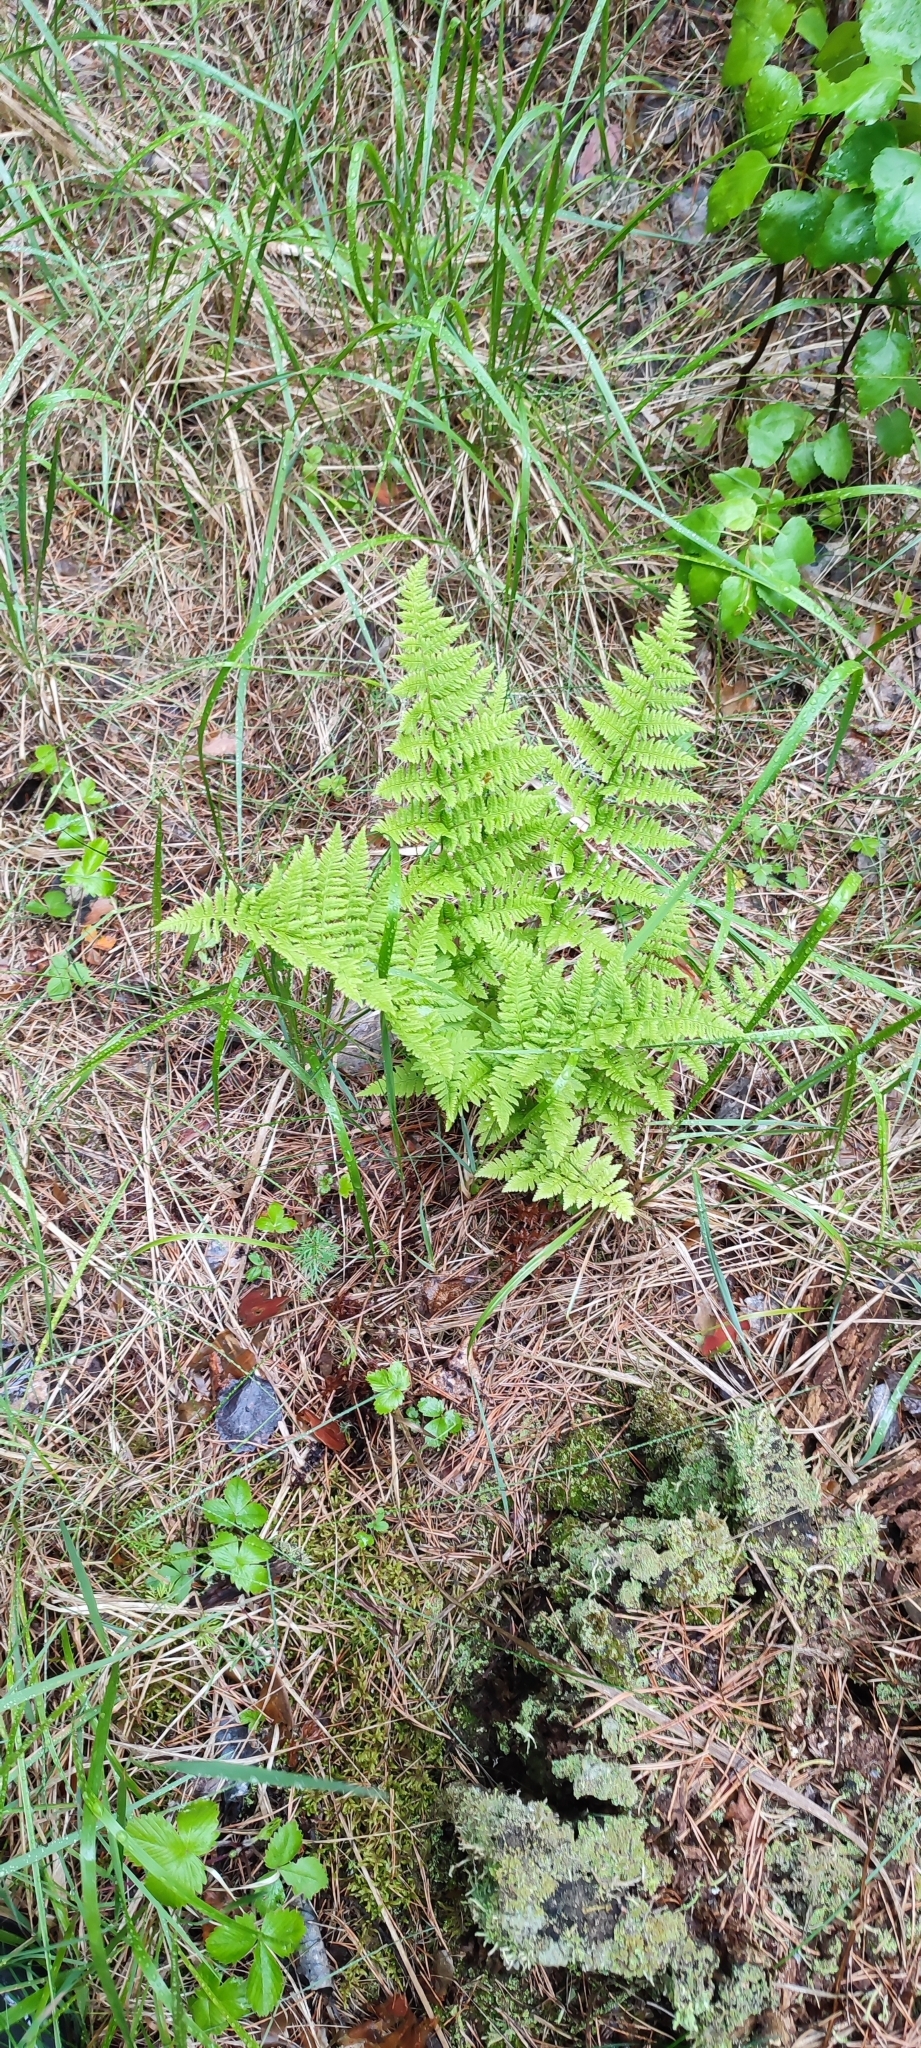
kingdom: Plantae
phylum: Tracheophyta
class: Polypodiopsida
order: Polypodiales
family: Dryopteridaceae
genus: Dryopteris
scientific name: Dryopteris carthusiana
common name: Narrow buckler-fern
